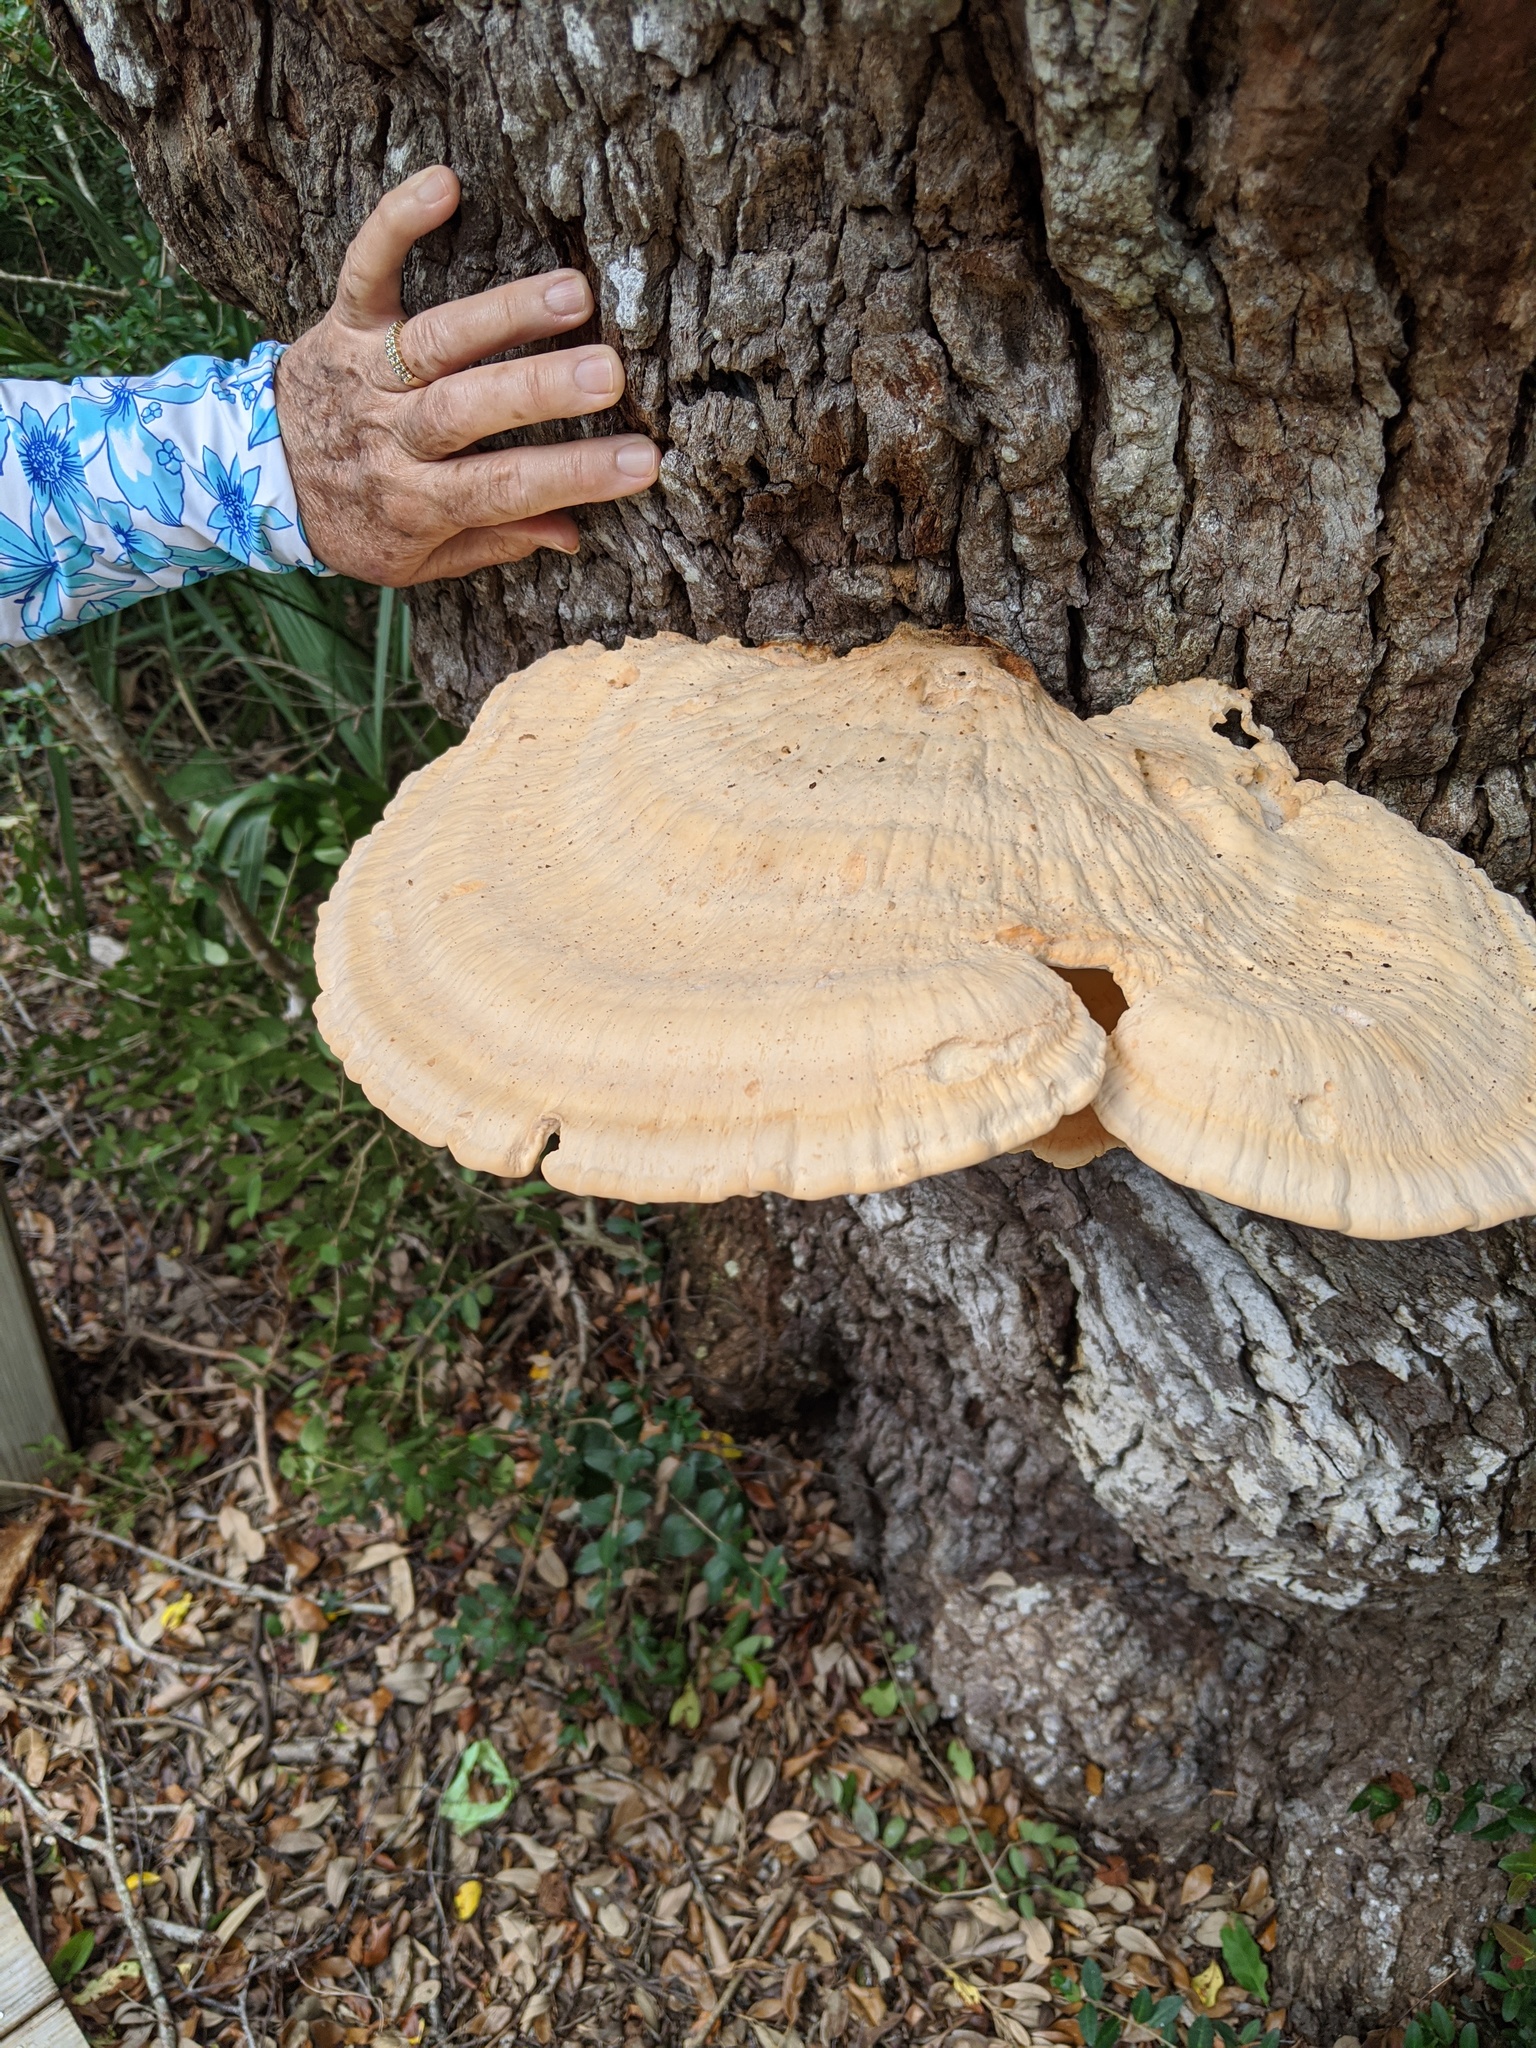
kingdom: Fungi
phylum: Basidiomycota
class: Agaricomycetes
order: Polyporales
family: Laetiporaceae
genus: Laetiporus
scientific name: Laetiporus gilbertsonii
